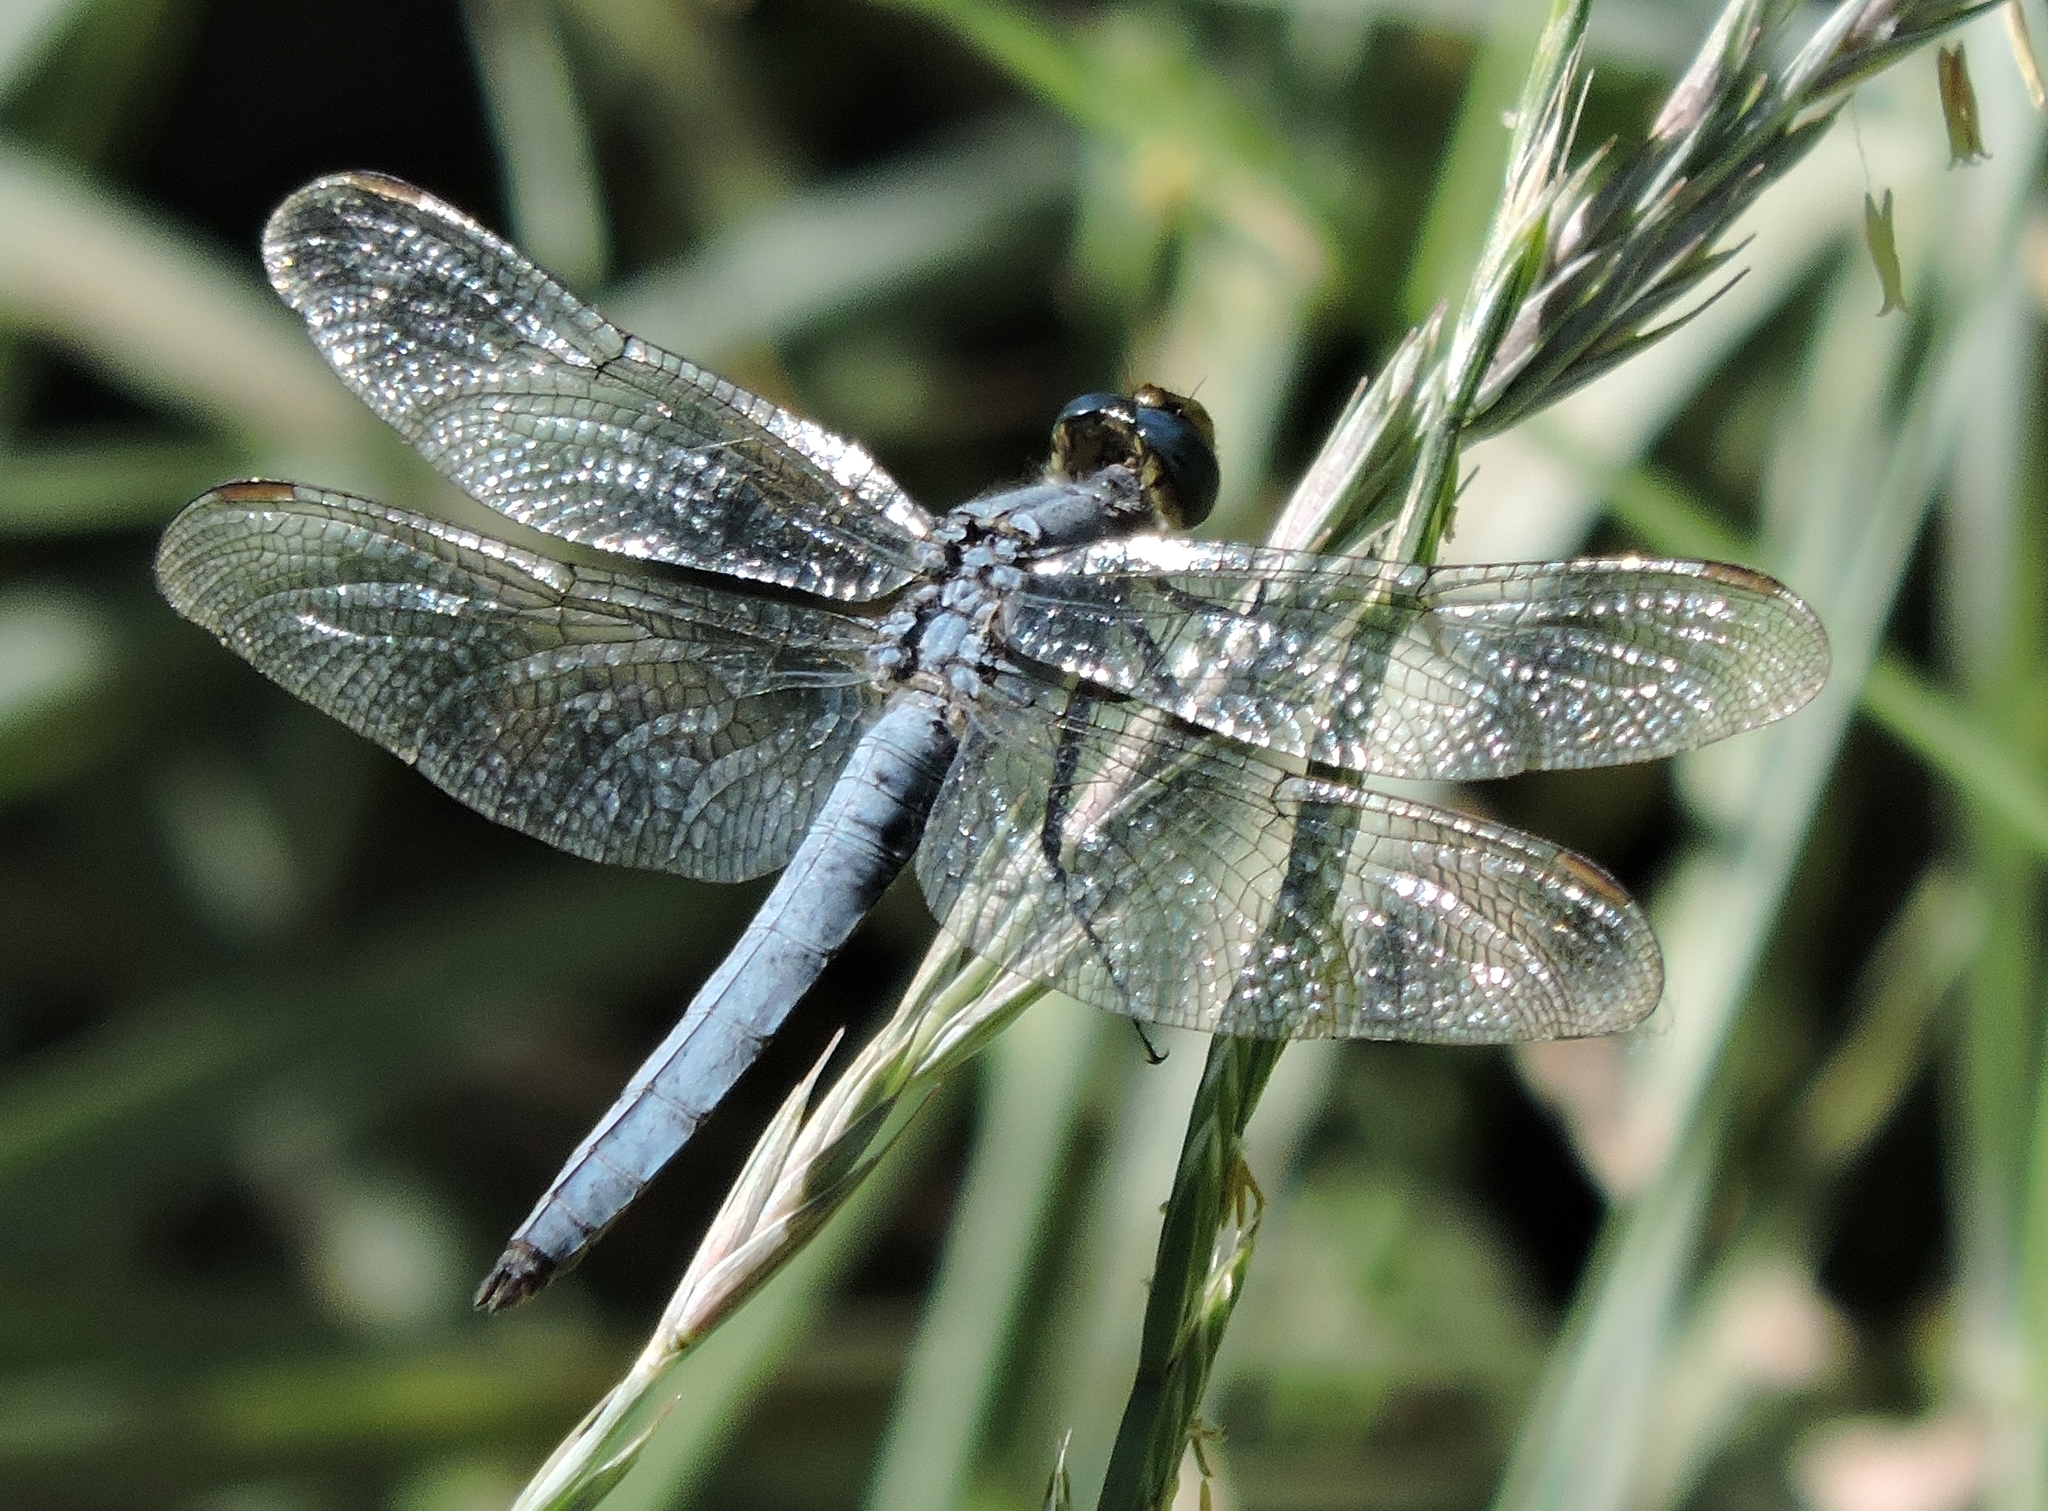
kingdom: Animalia
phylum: Arthropoda
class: Insecta
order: Odonata
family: Libellulidae
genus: Erythemis
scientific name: Erythemis collocata
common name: Western pondhawk
